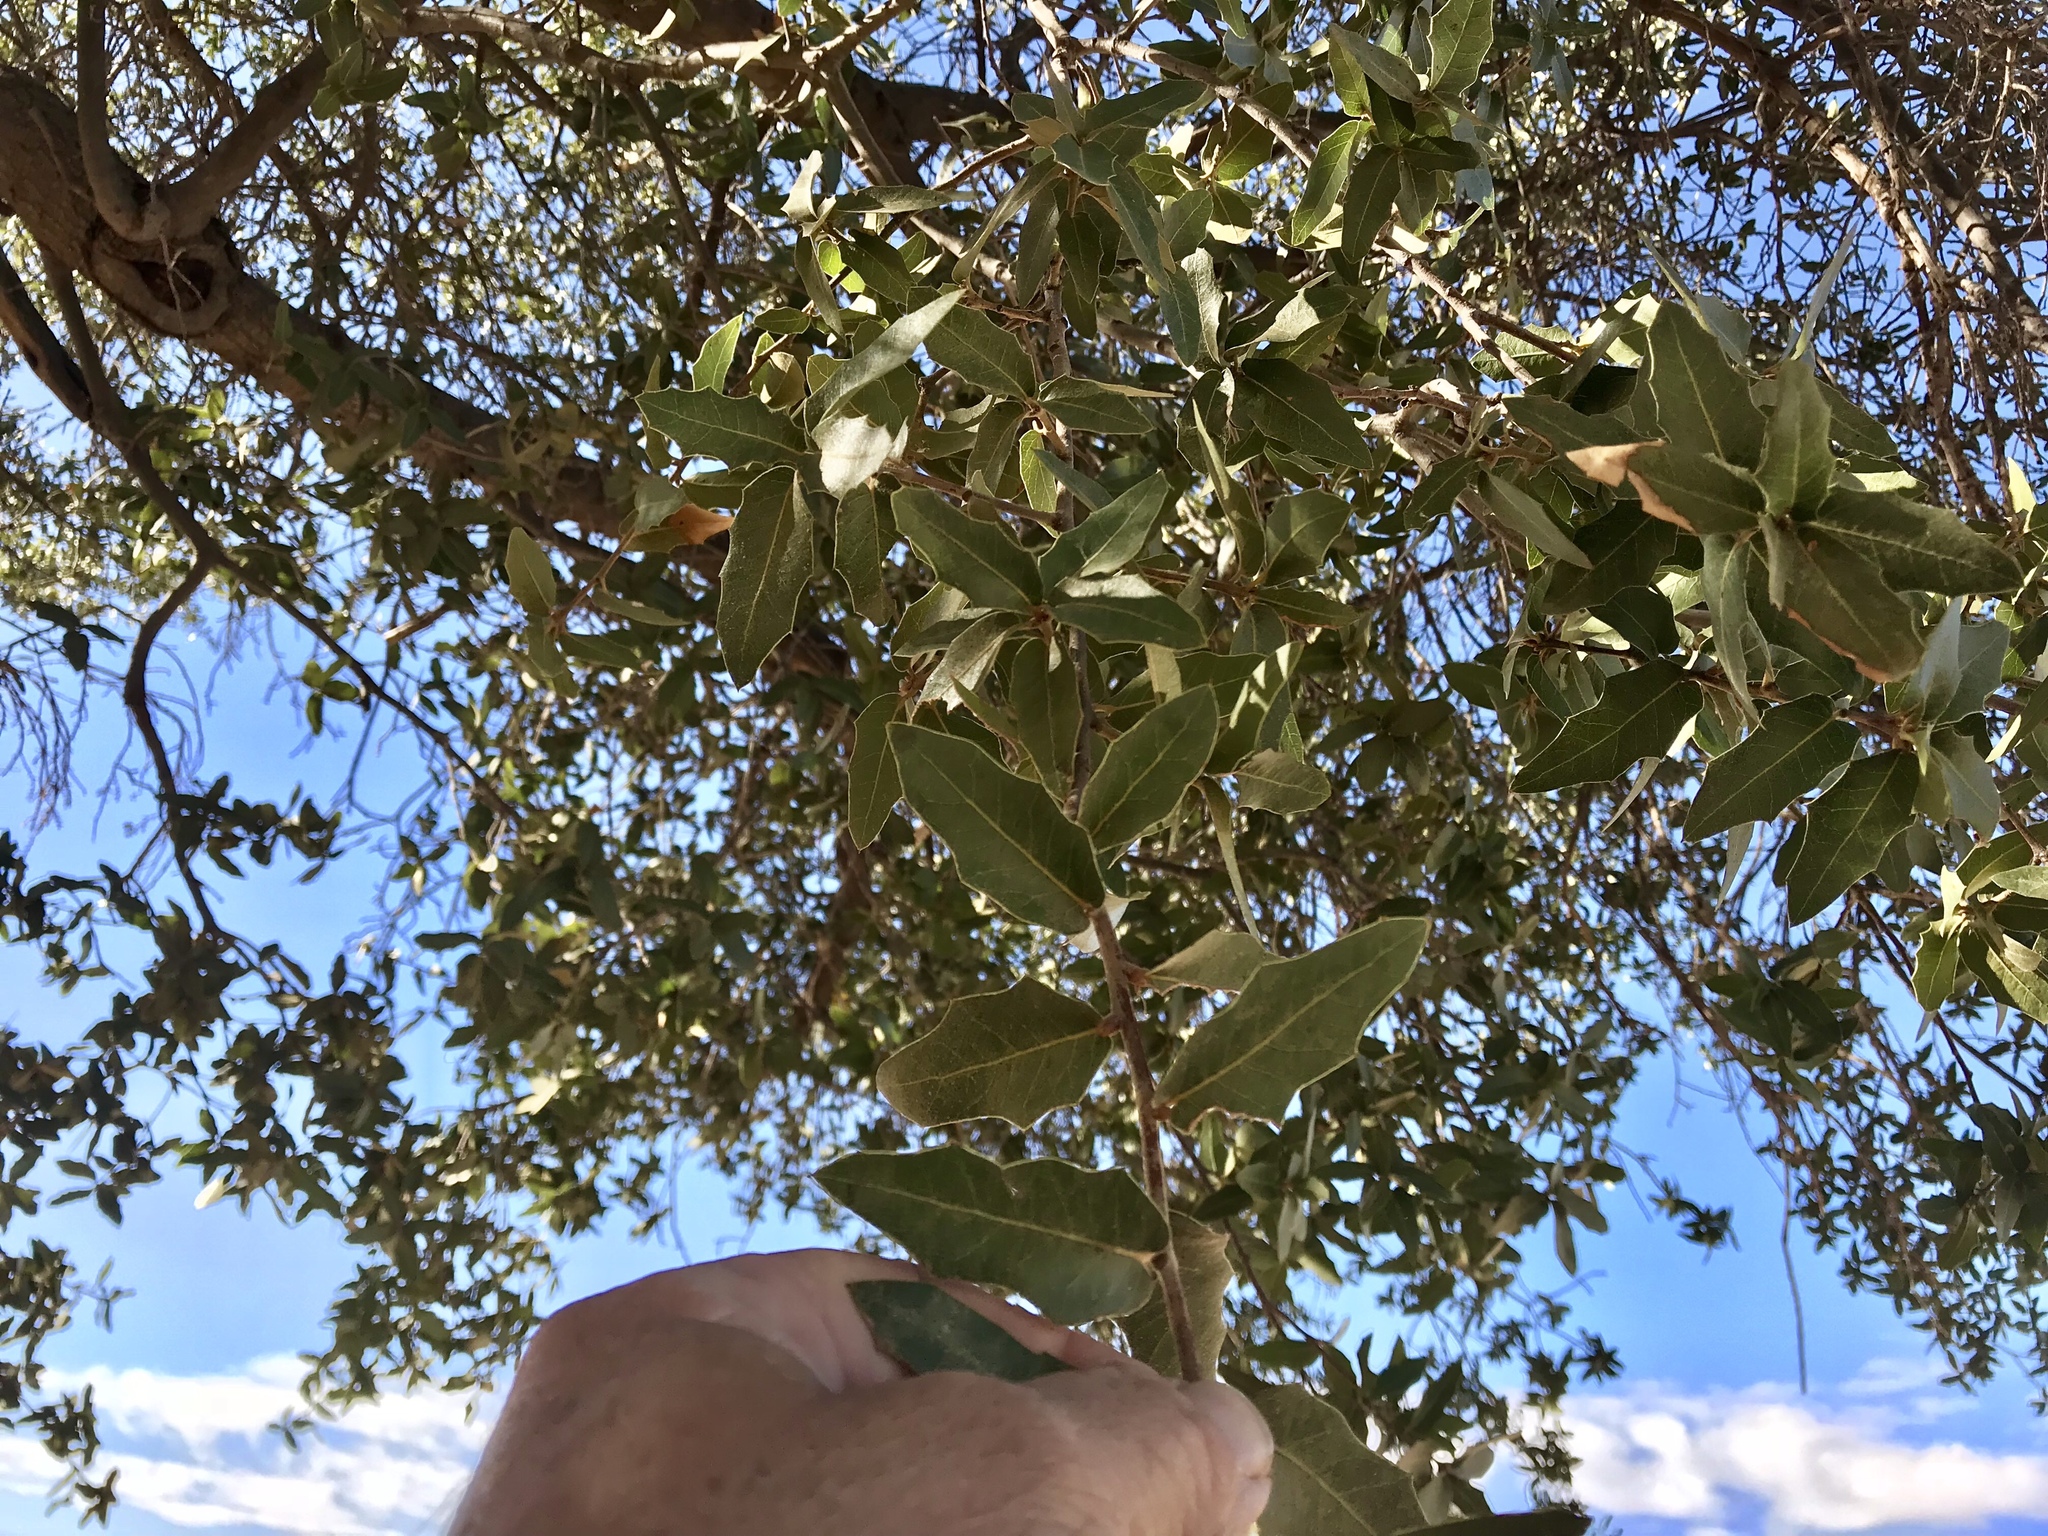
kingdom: Plantae
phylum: Tracheophyta
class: Magnoliopsida
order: Fagales
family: Fagaceae
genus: Quercus
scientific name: Quercus emoryi
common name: Emory oak
